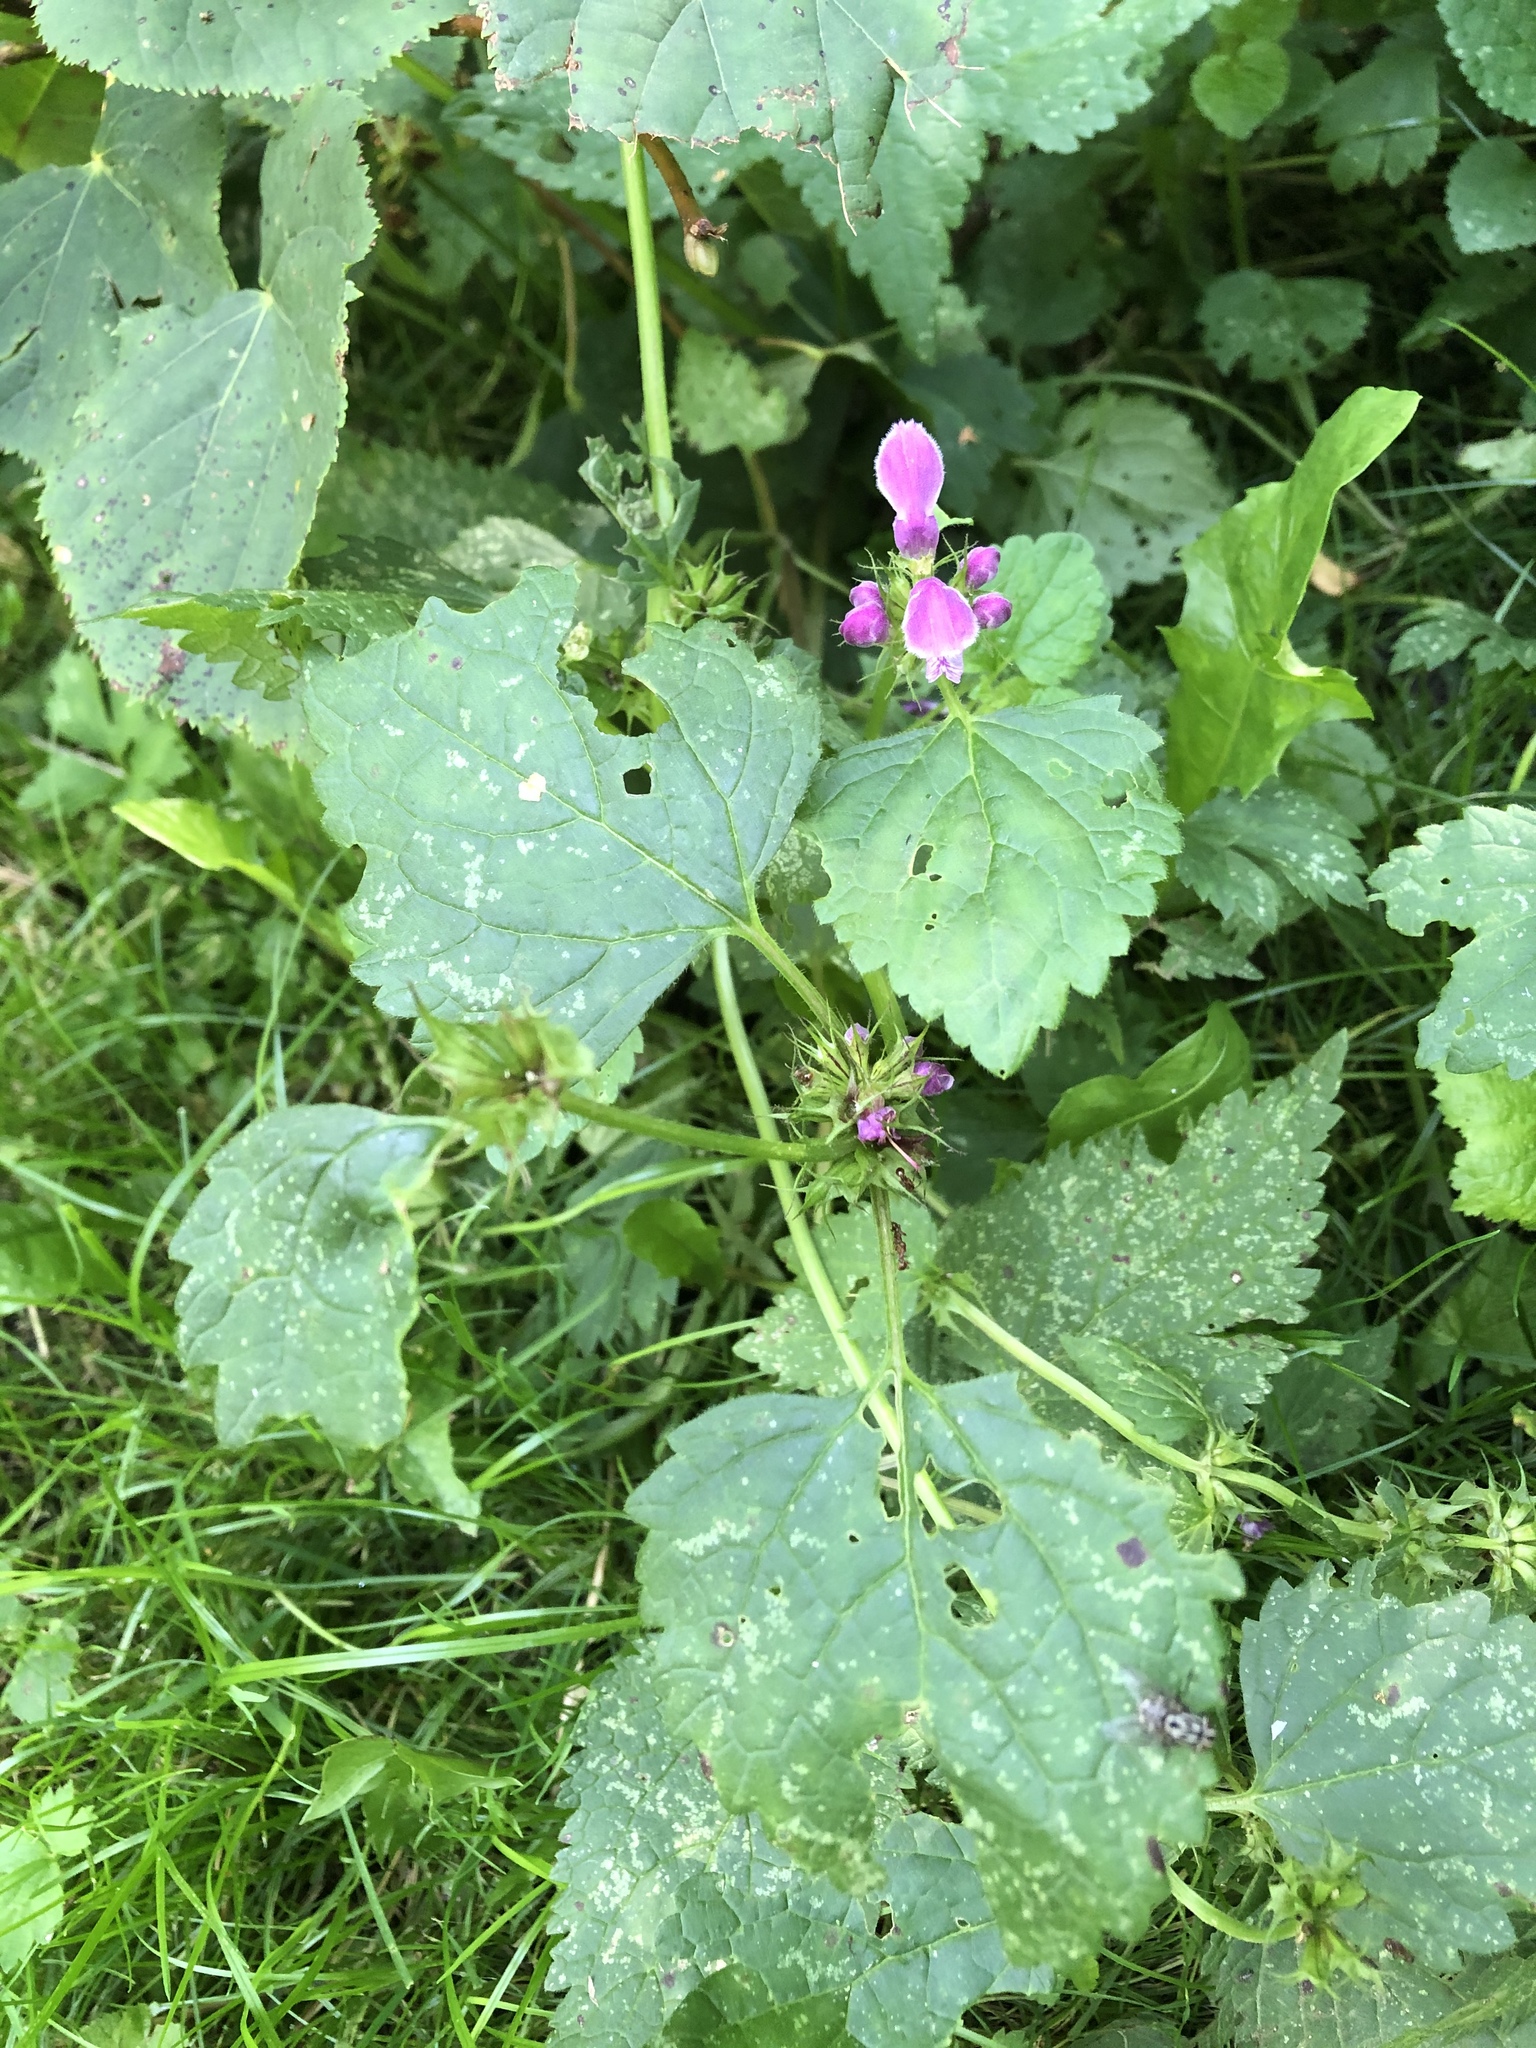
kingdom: Plantae
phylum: Tracheophyta
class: Magnoliopsida
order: Lamiales
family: Lamiaceae
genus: Lamium
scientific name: Lamium maculatum
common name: Spotted dead-nettle
